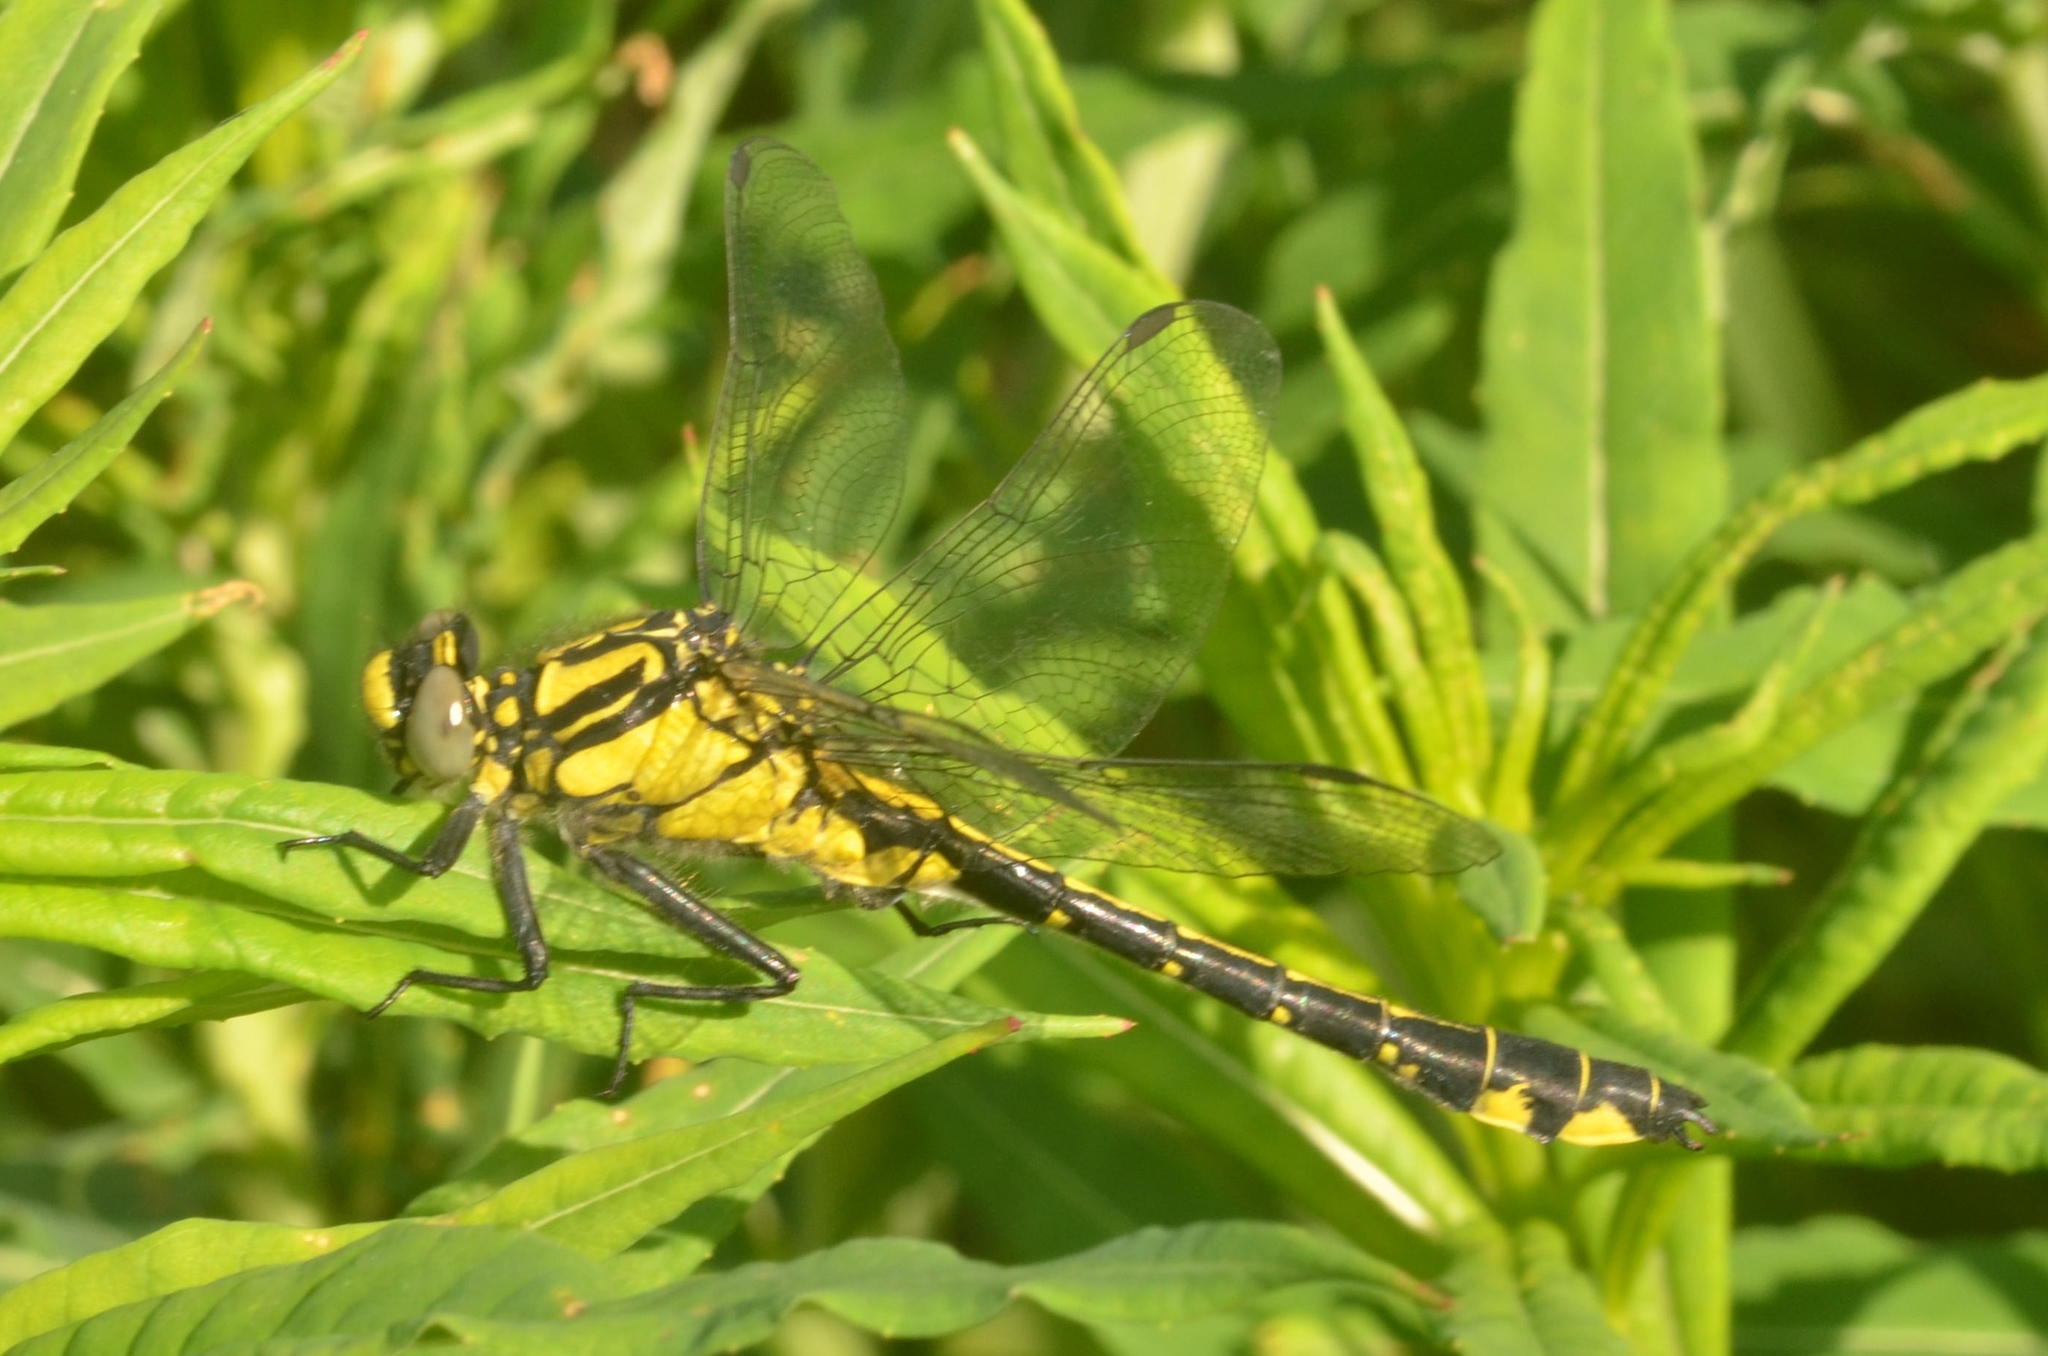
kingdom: Animalia
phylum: Arthropoda
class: Insecta
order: Odonata
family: Gomphidae
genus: Gomphus
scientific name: Gomphus vulgatissimus
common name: Club-tailed dragonfly
